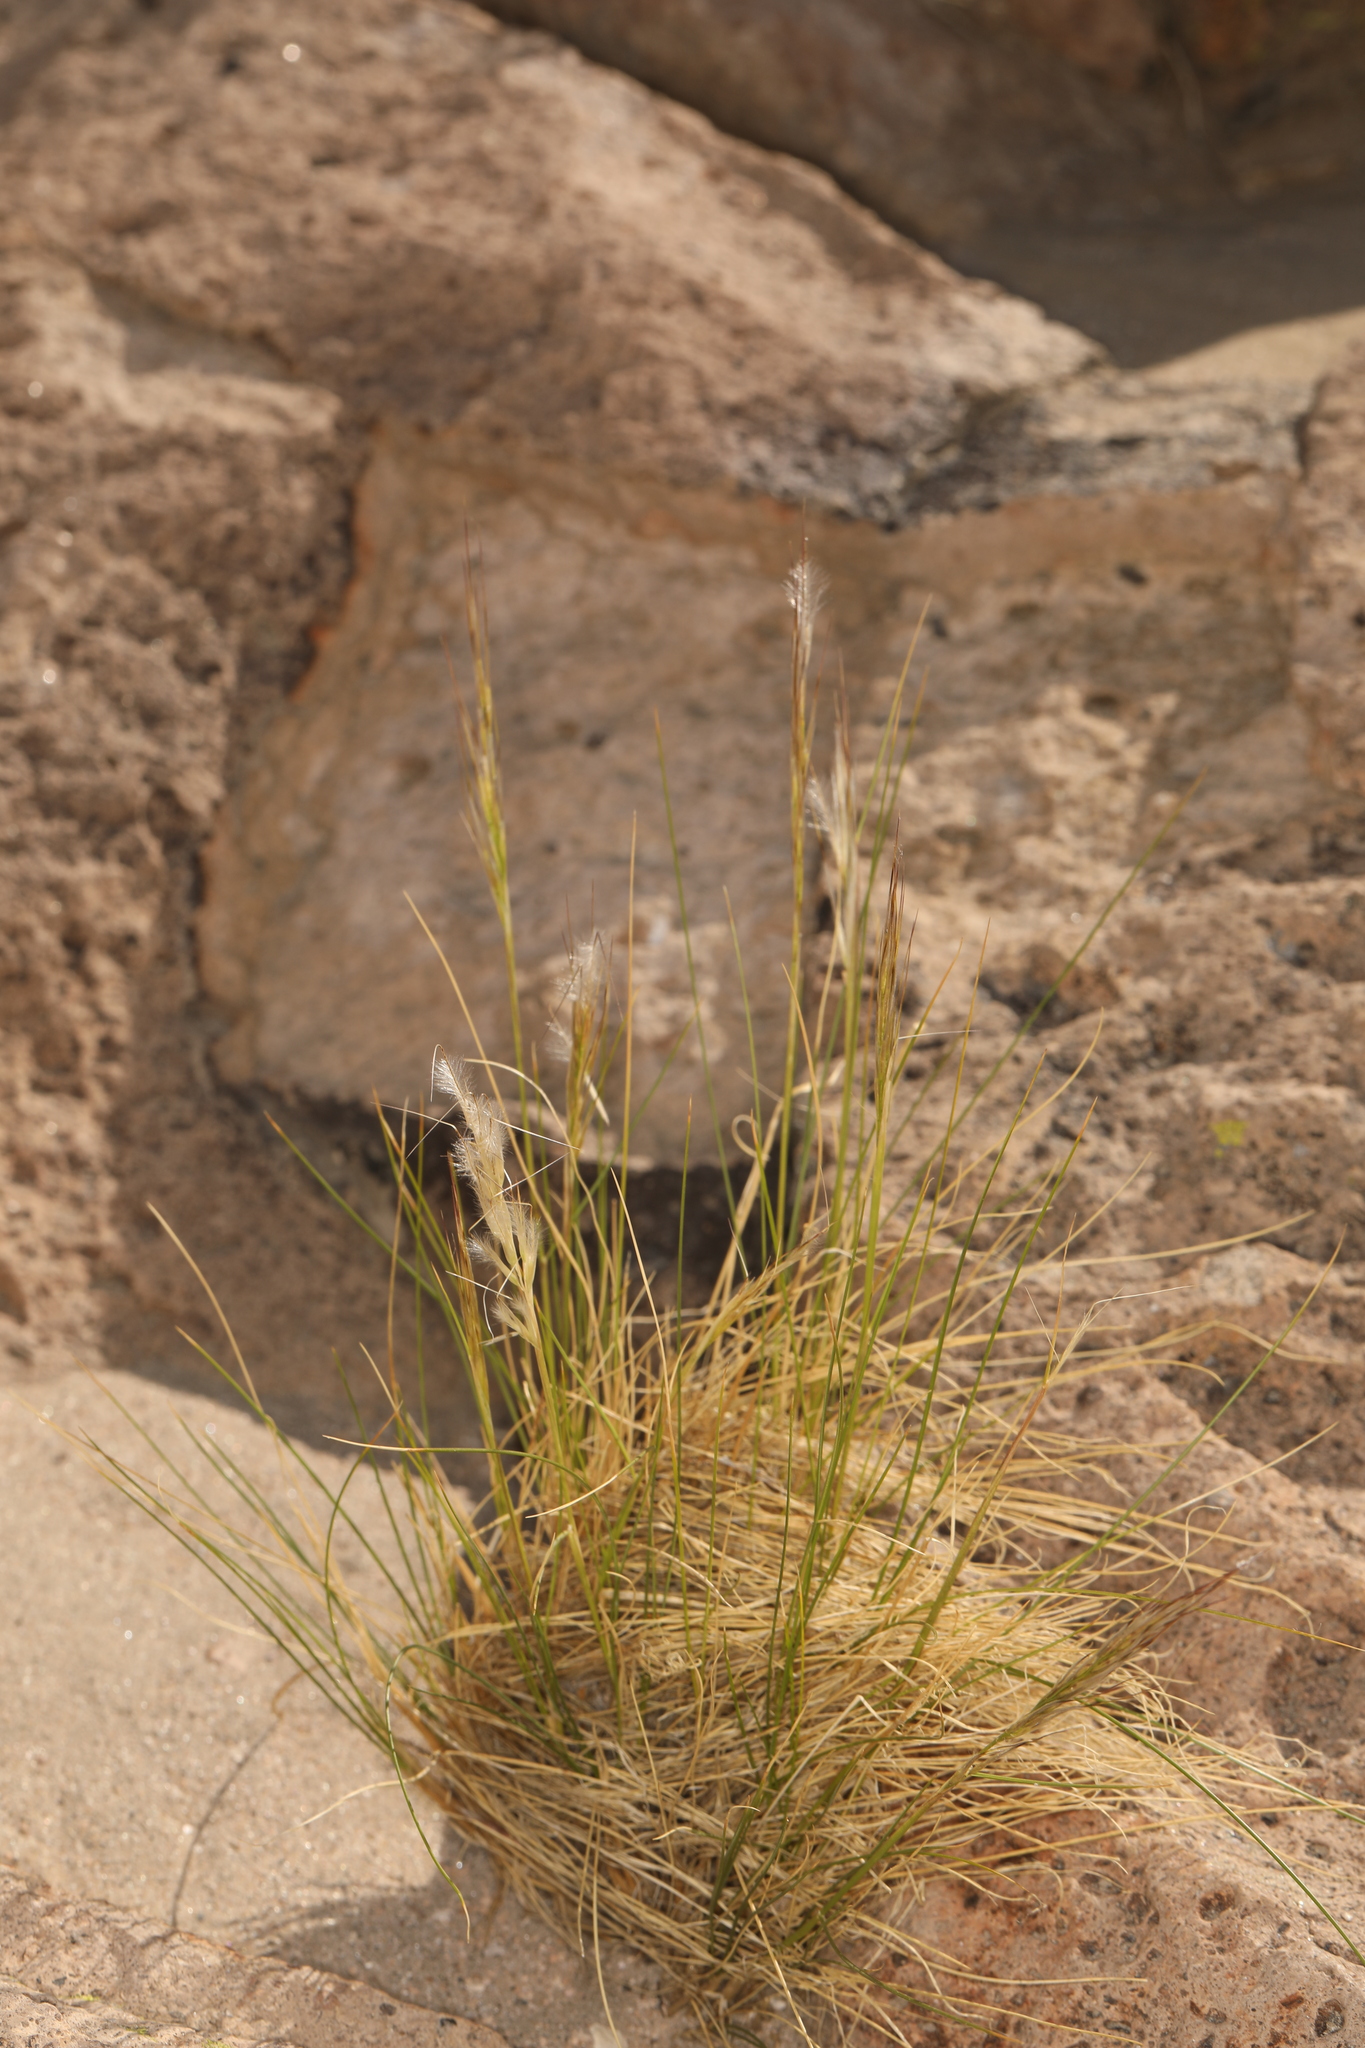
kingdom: Plantae
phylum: Tracheophyta
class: Liliopsida
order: Poales
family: Poaceae
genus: Pappostipa
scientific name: Pappostipa speciosa
